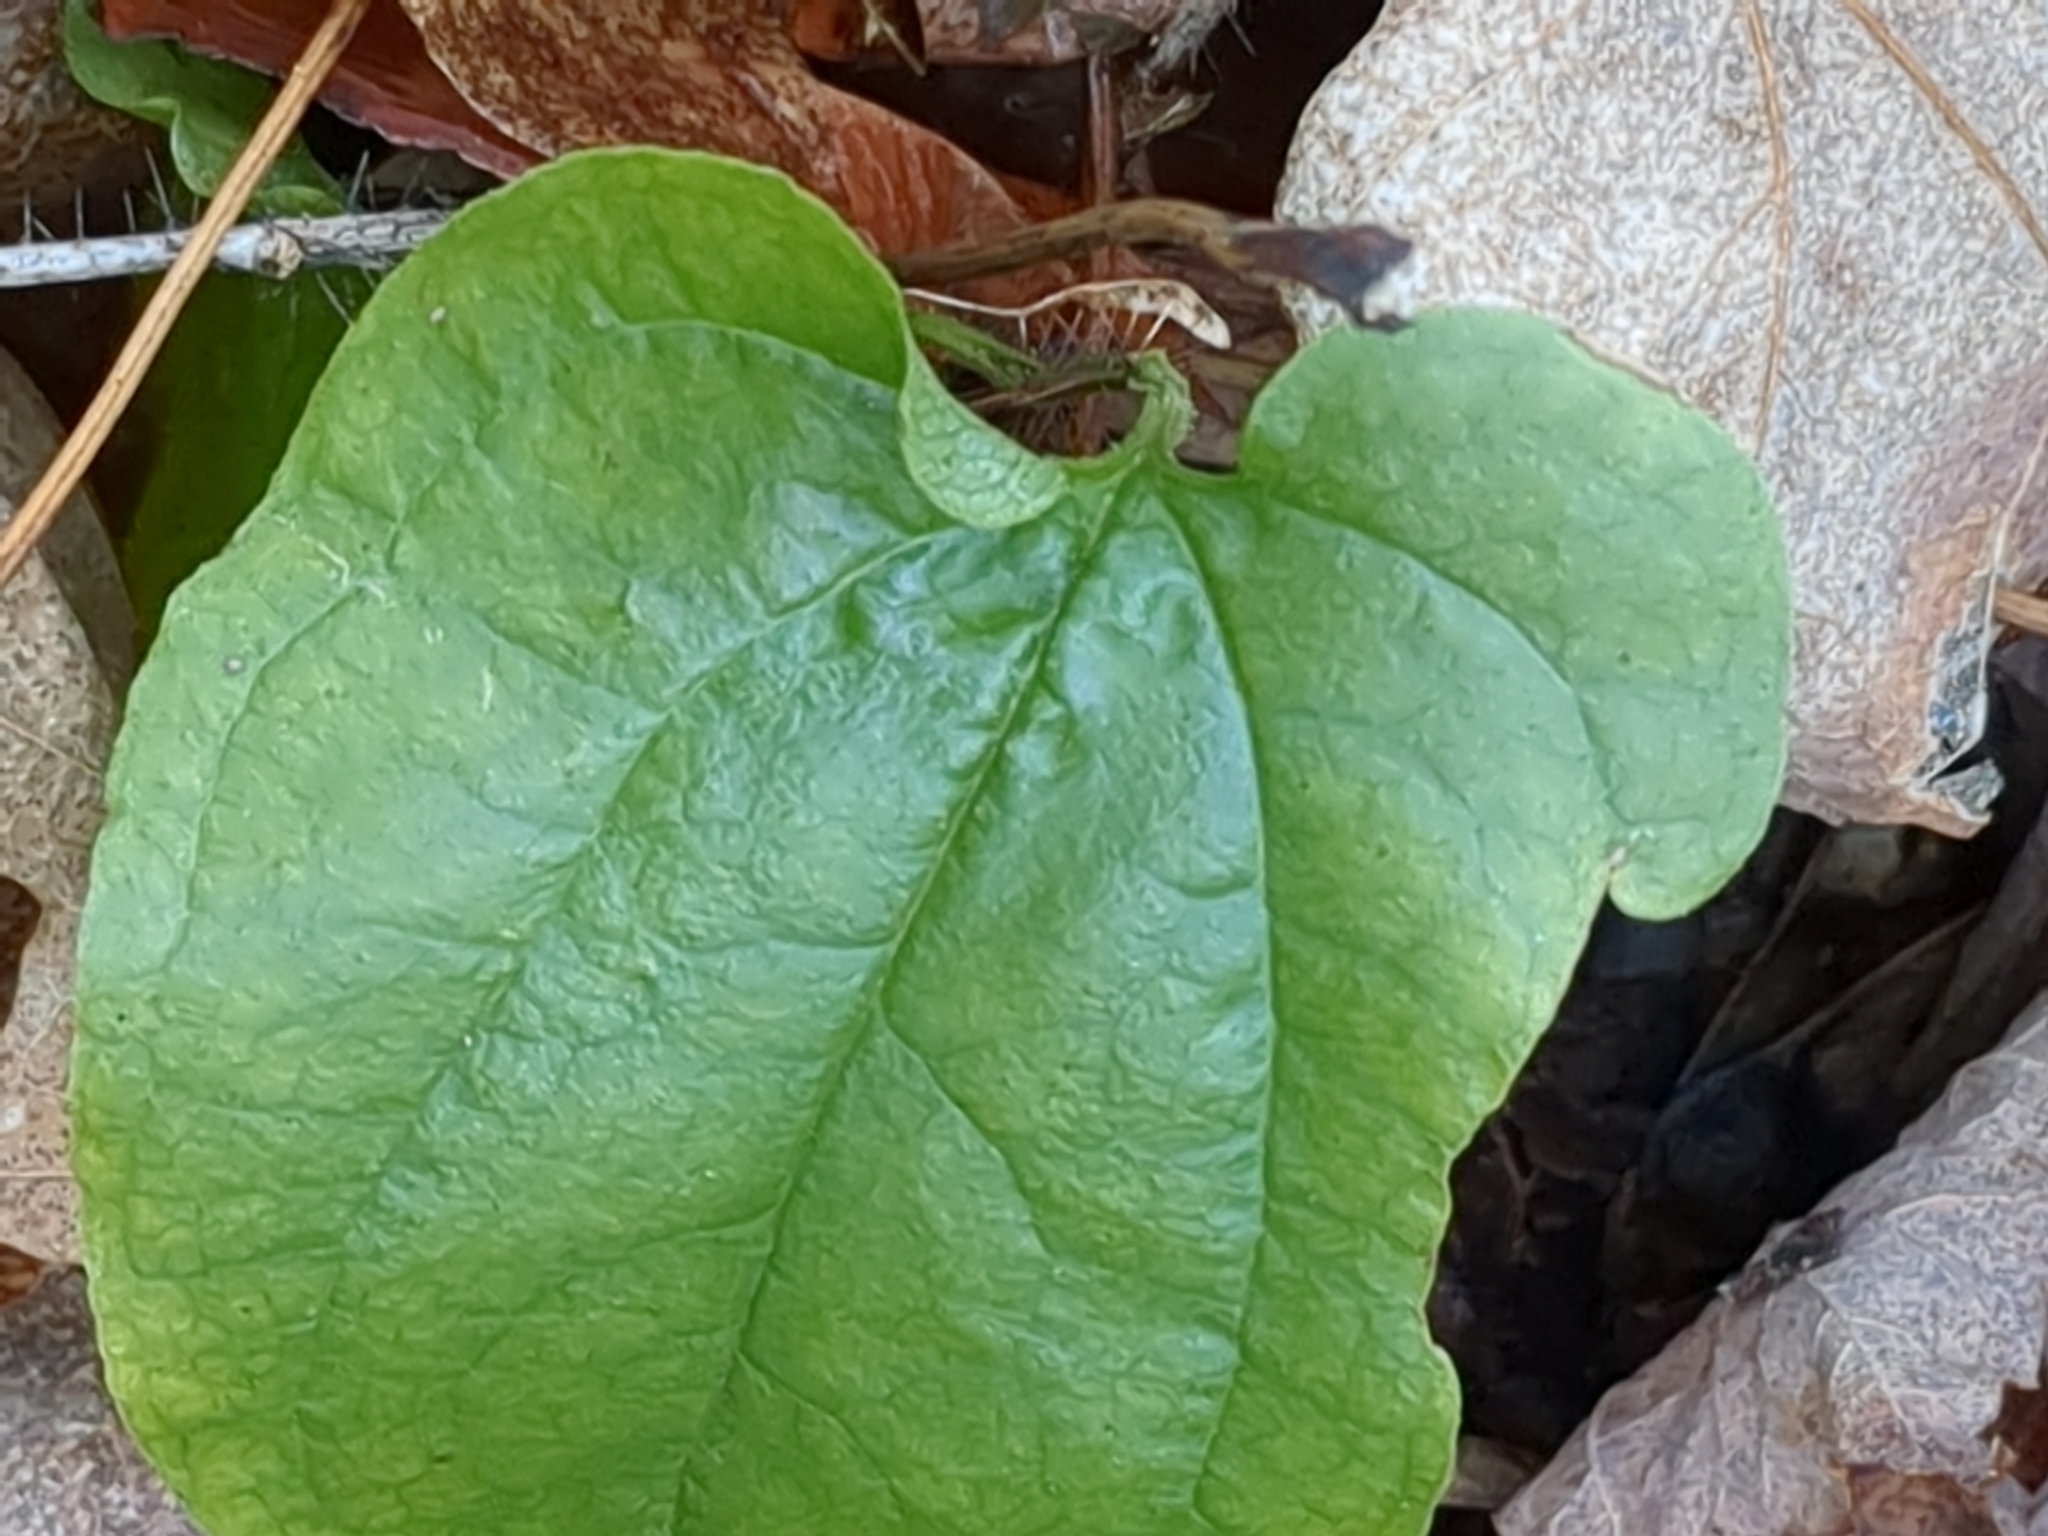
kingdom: Plantae
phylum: Tracheophyta
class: Liliopsida
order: Liliales
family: Smilacaceae
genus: Smilax
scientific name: Smilax tamnoides
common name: Hellfetter
